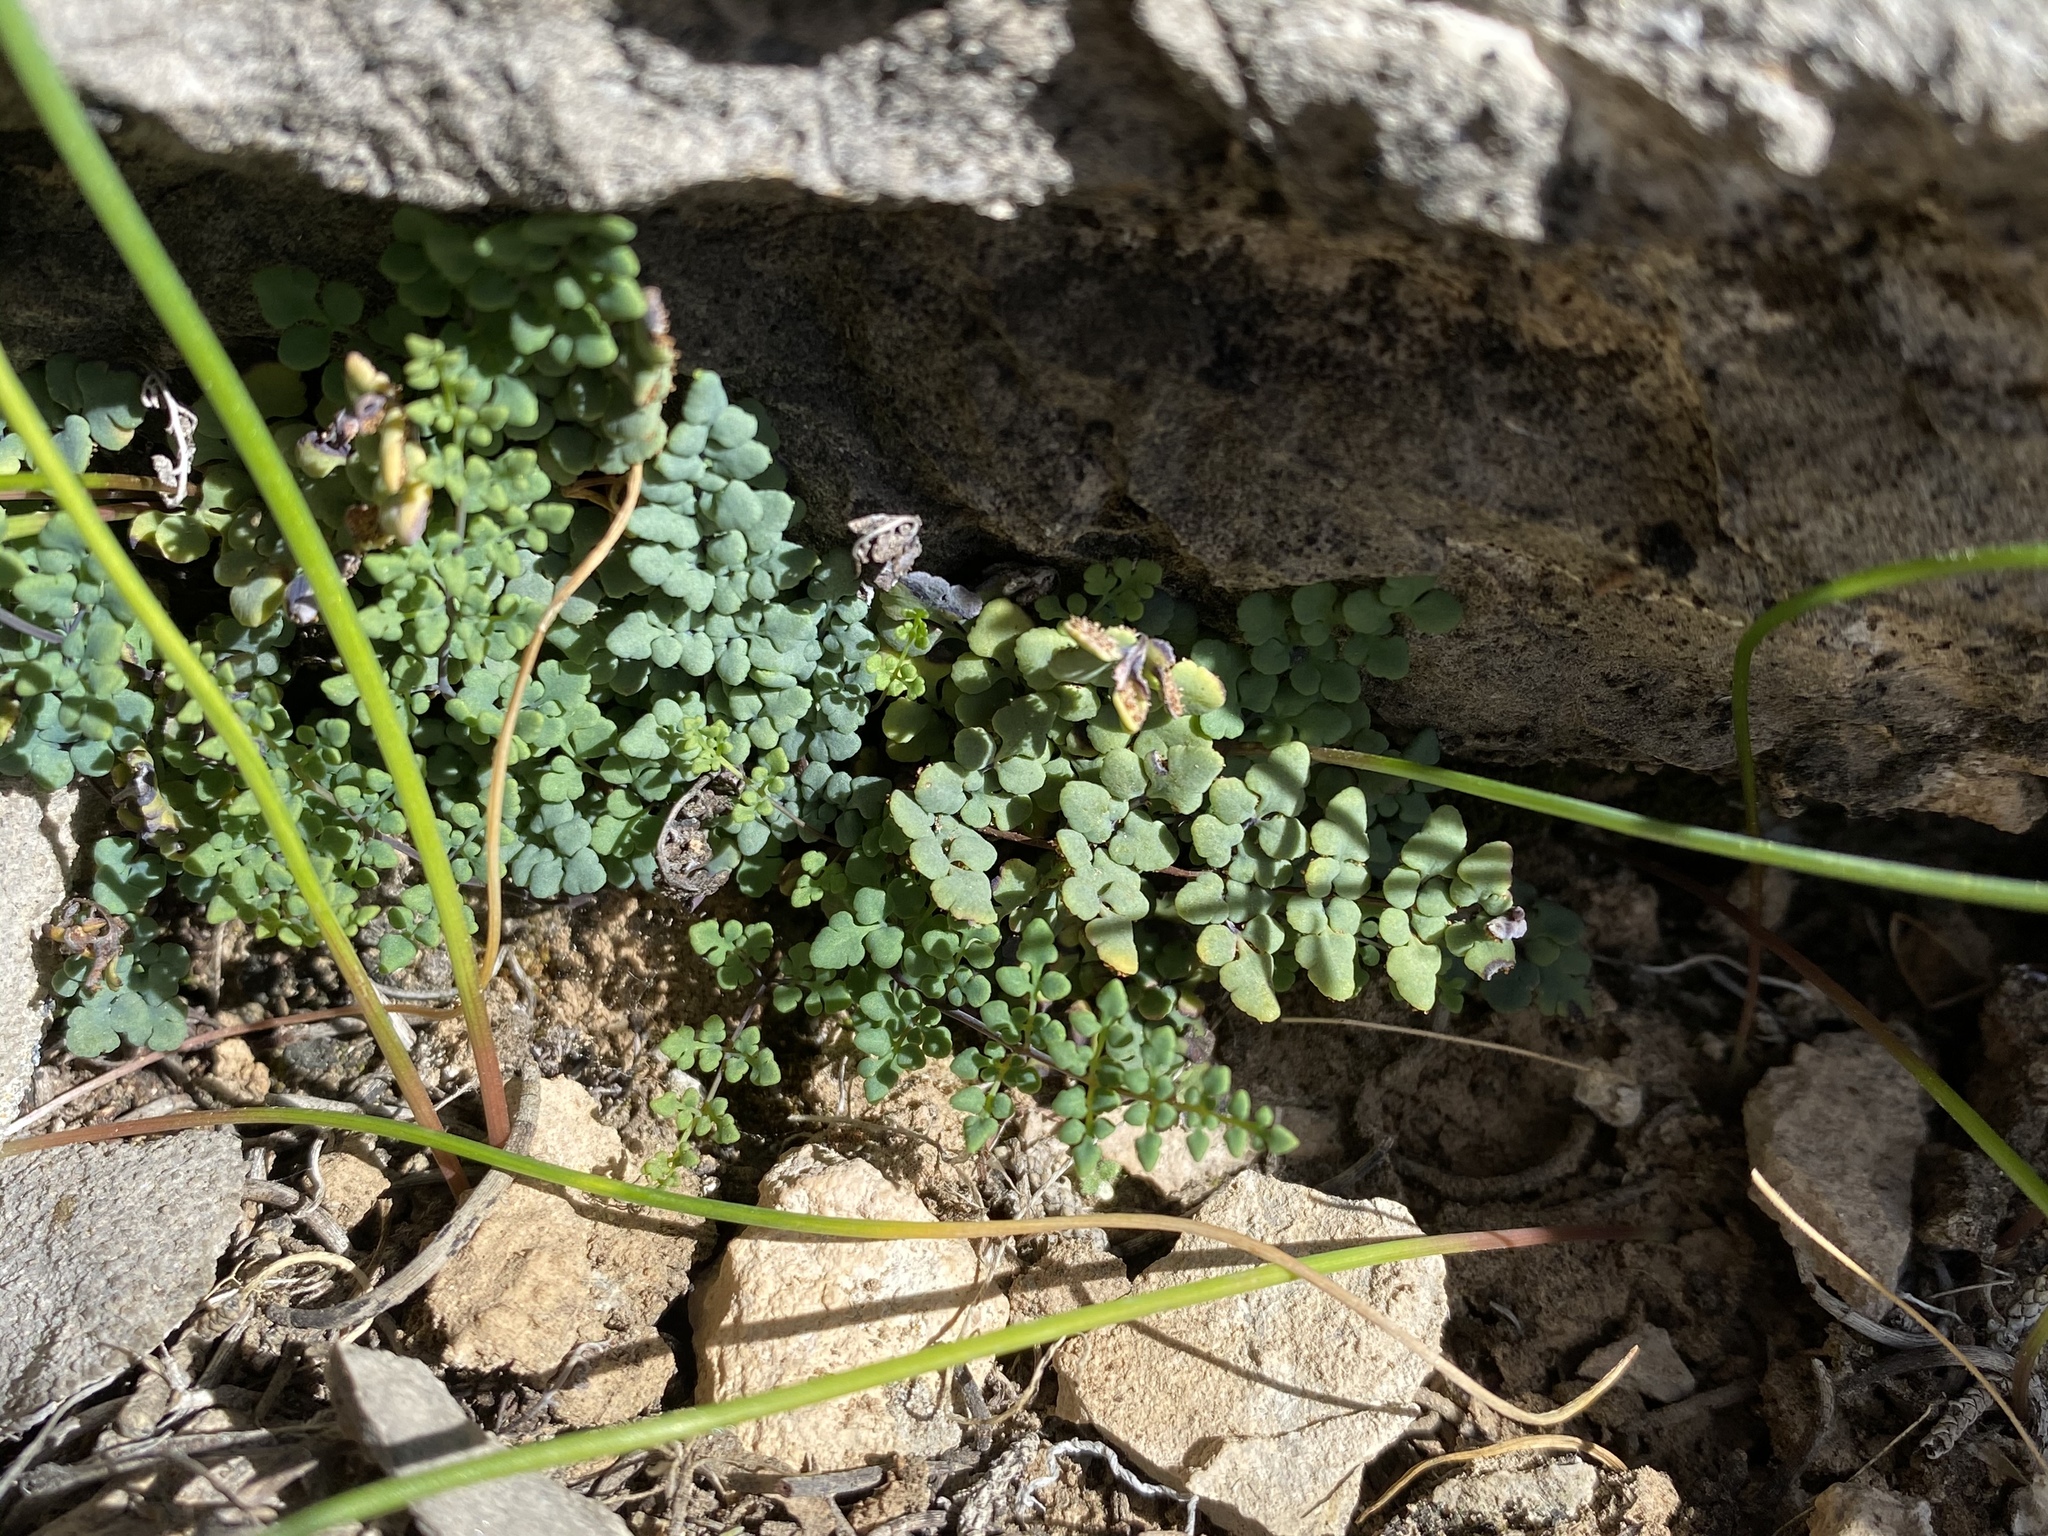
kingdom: Plantae
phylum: Tracheophyta
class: Polypodiopsida
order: Polypodiales
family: Pteridaceae
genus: Argyrochosma
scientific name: Argyrochosma jonesii
